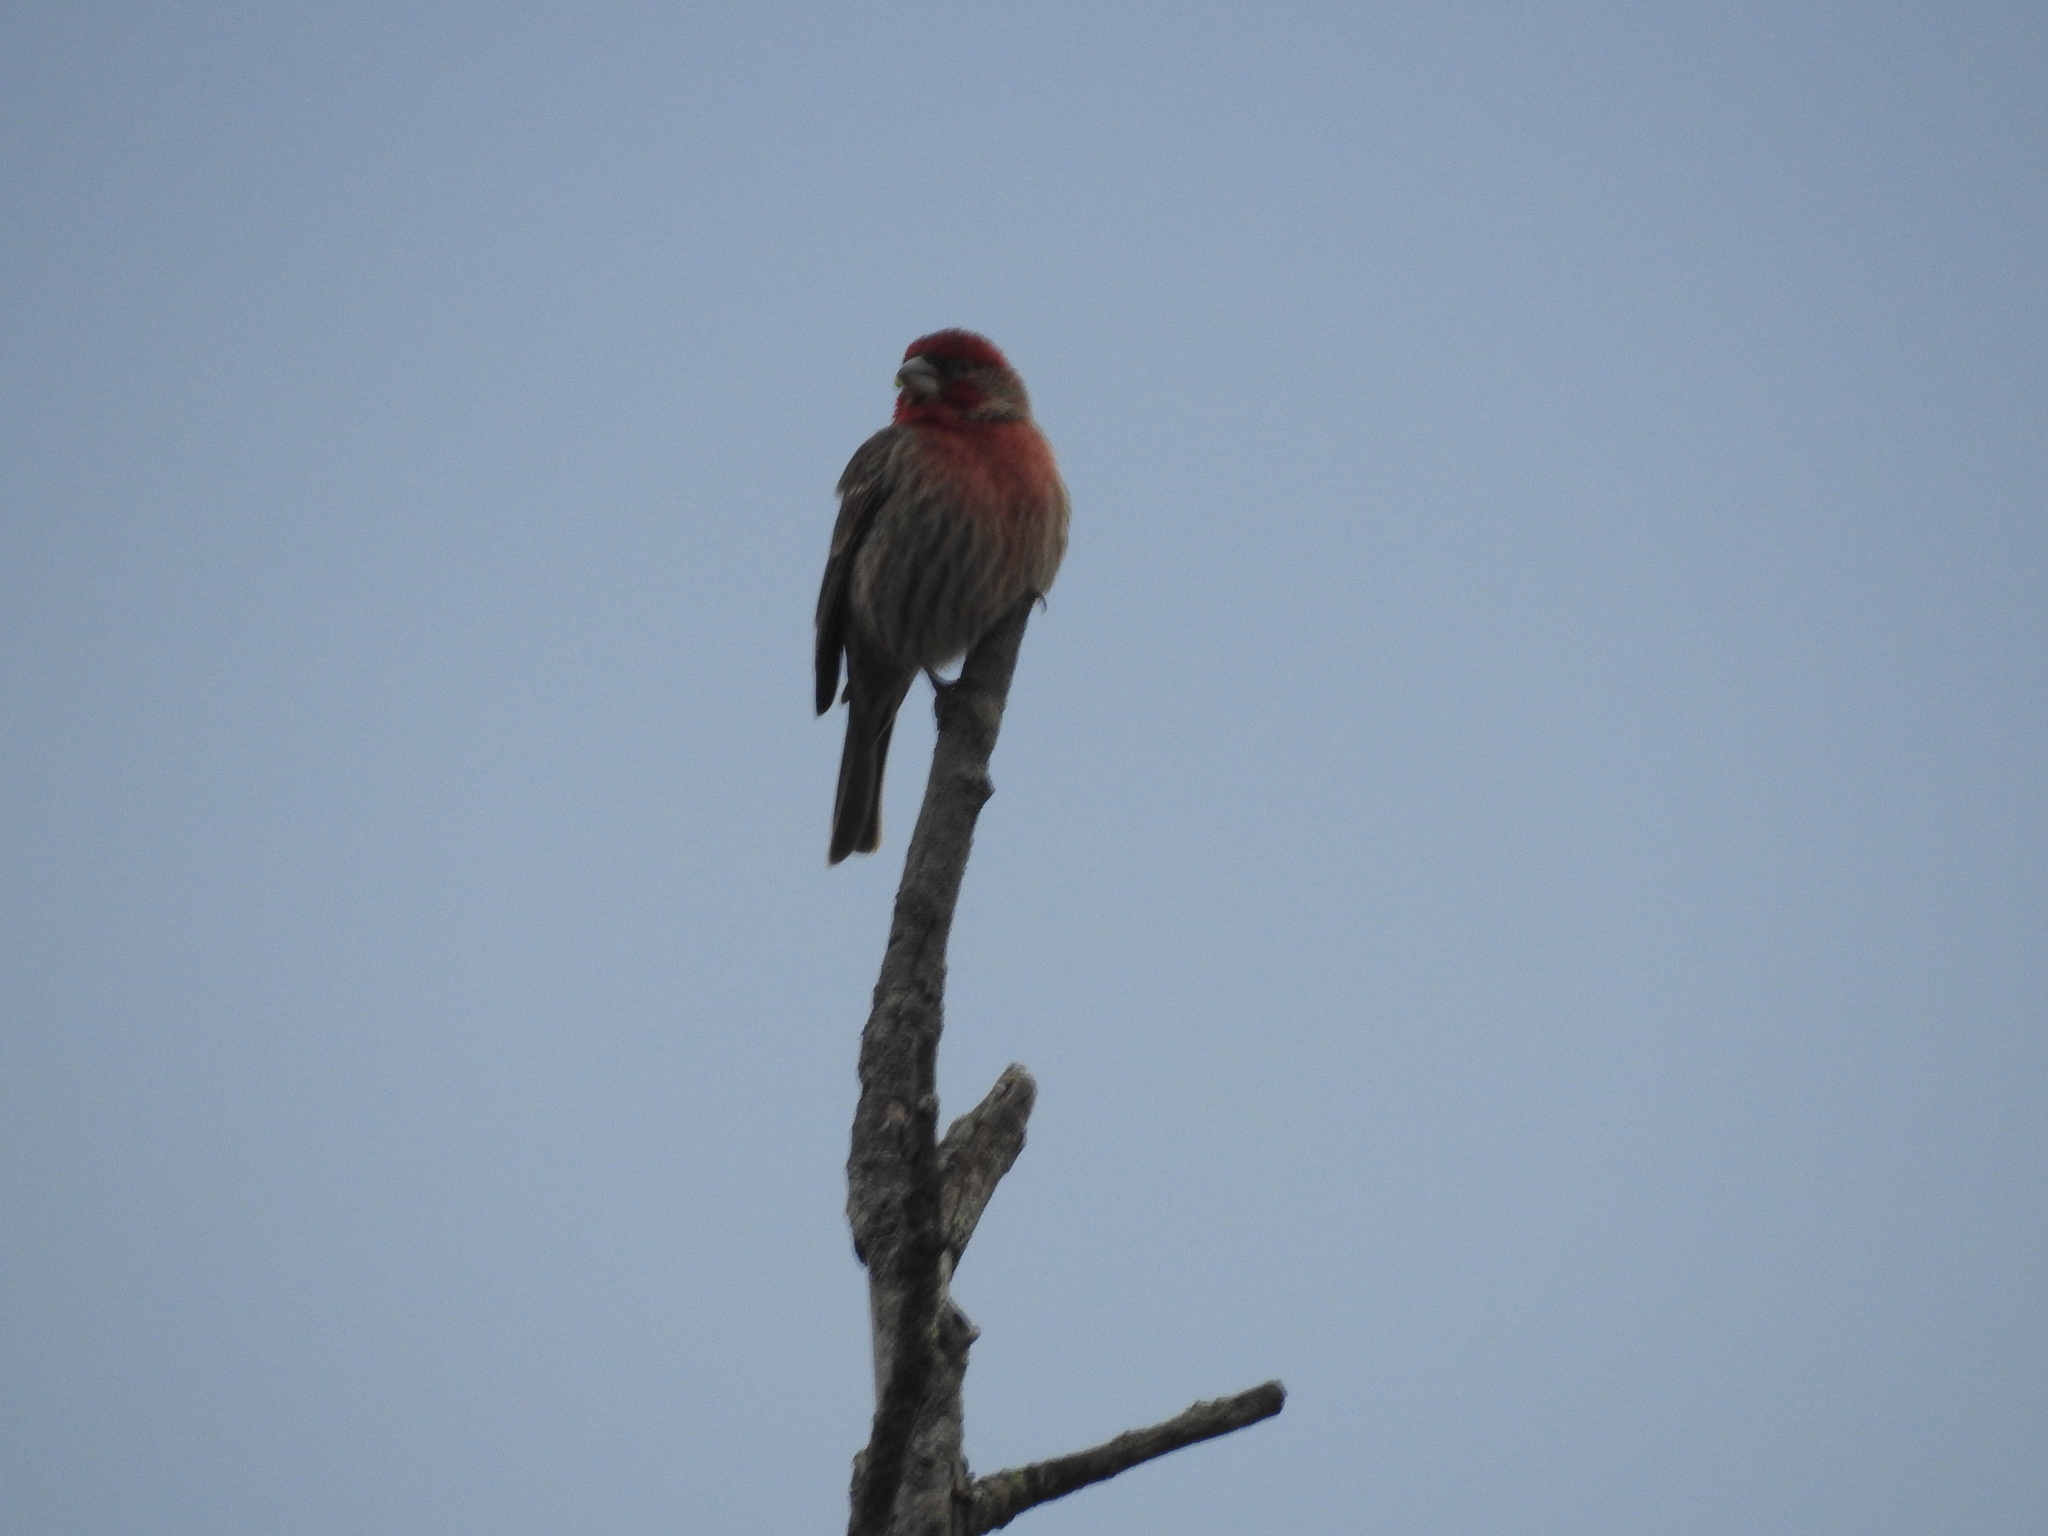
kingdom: Animalia
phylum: Chordata
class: Aves
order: Passeriformes
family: Fringillidae
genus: Haemorhous
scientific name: Haemorhous mexicanus
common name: House finch
